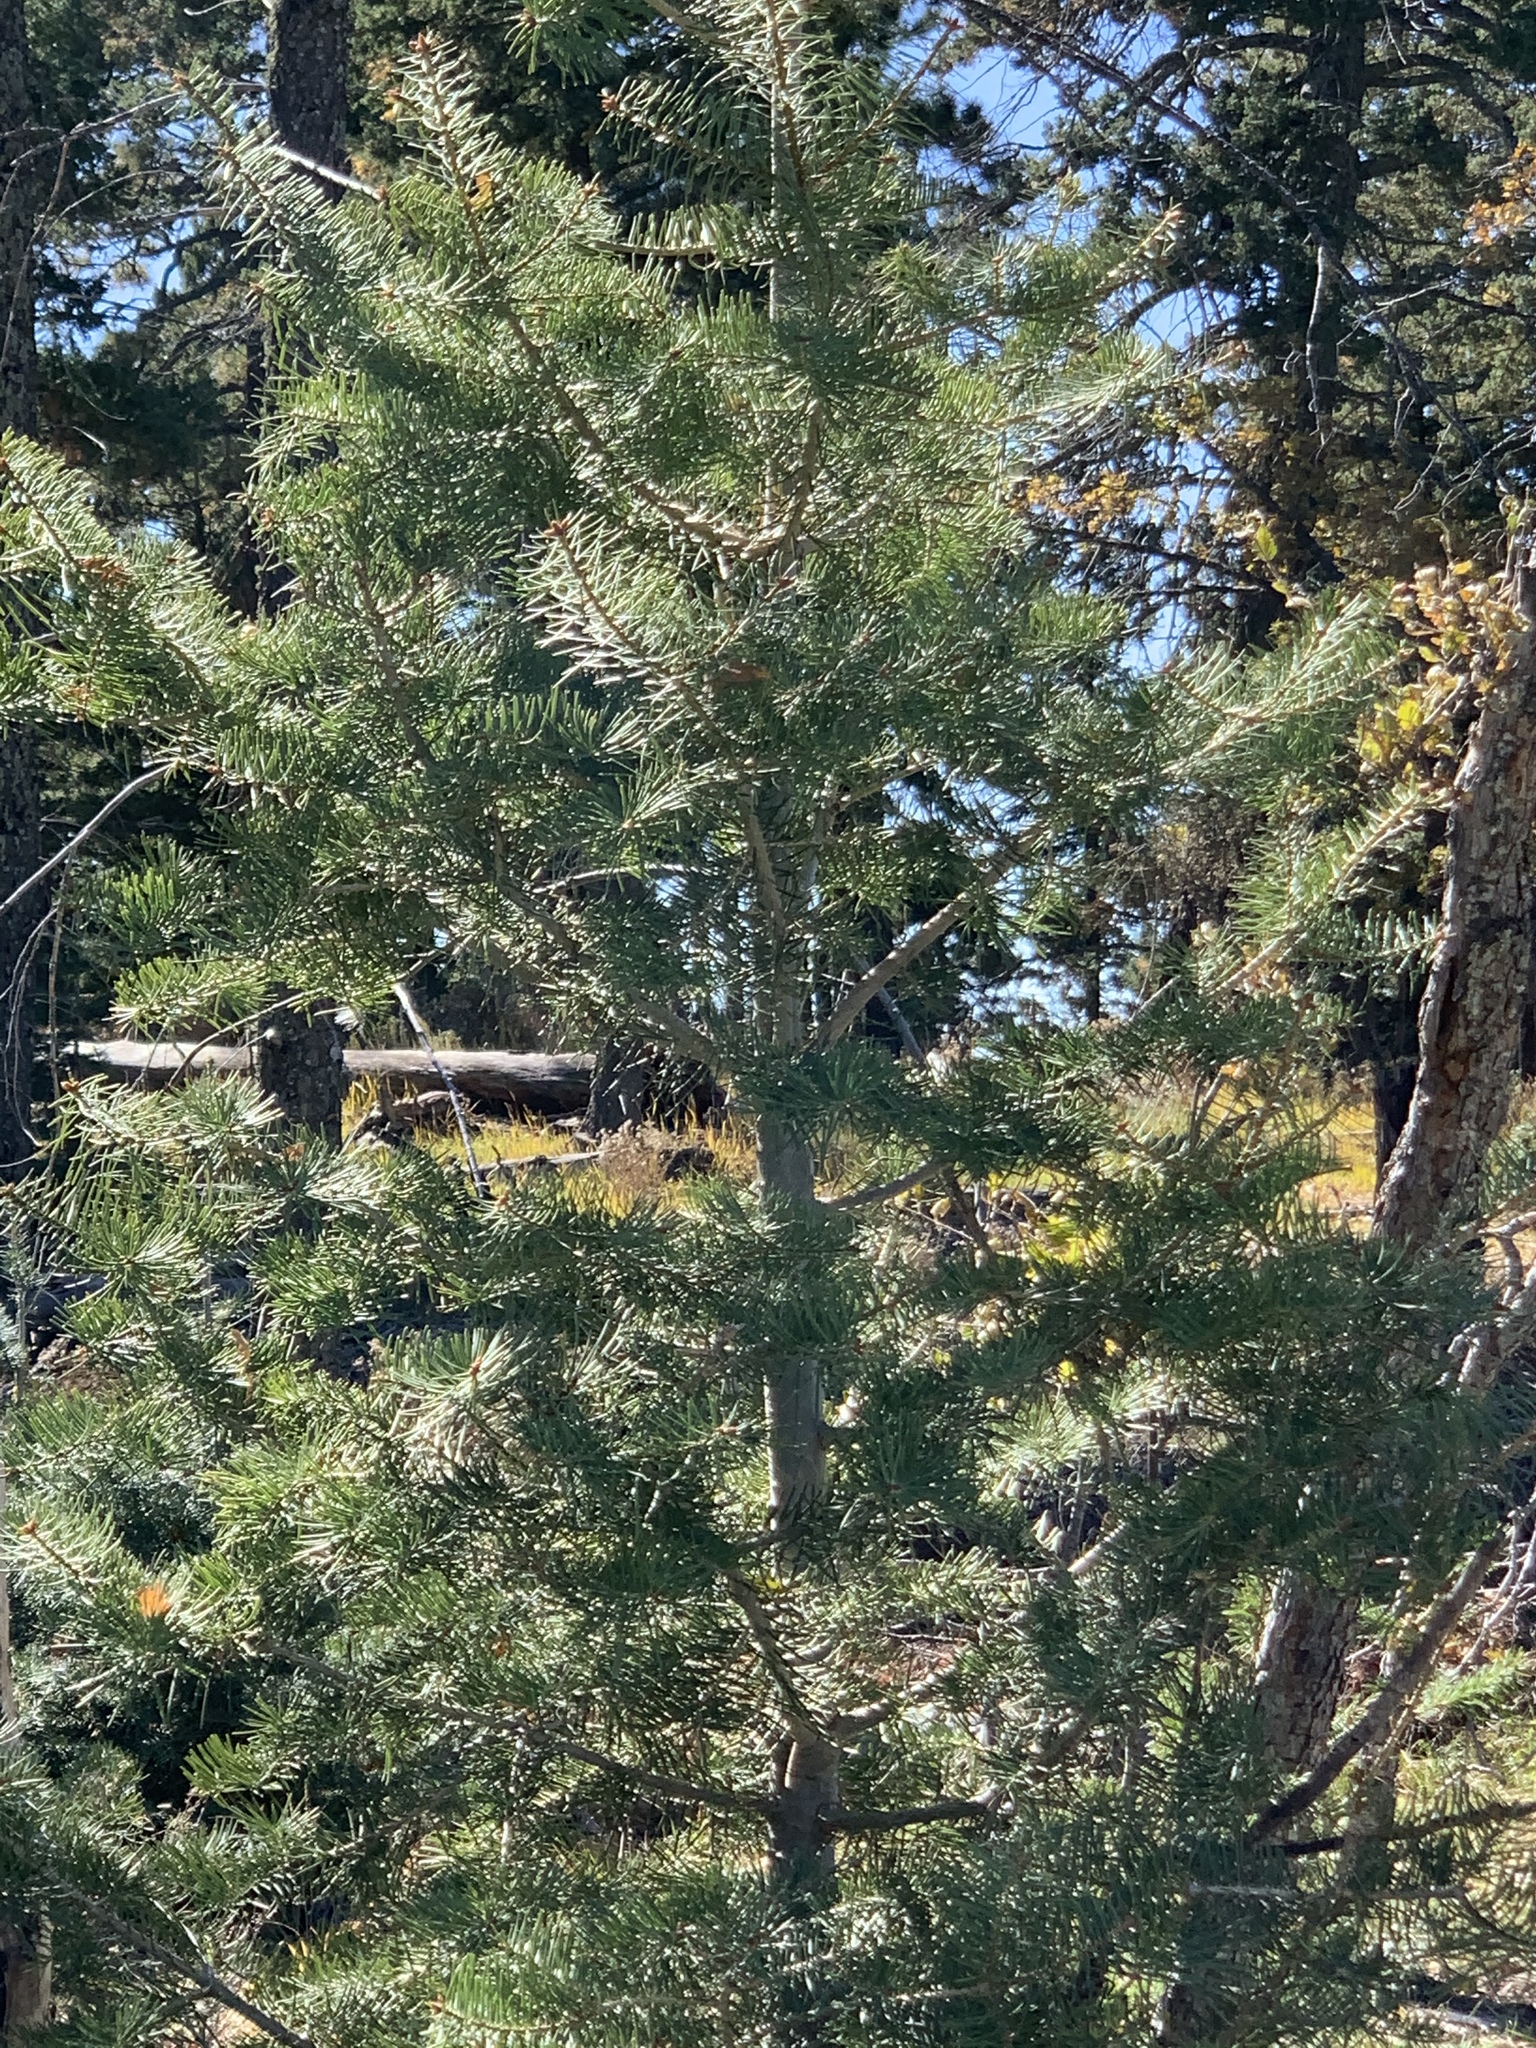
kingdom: Plantae
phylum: Tracheophyta
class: Pinopsida
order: Pinales
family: Pinaceae
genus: Pseudotsuga
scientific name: Pseudotsuga menziesii
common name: Douglas fir
